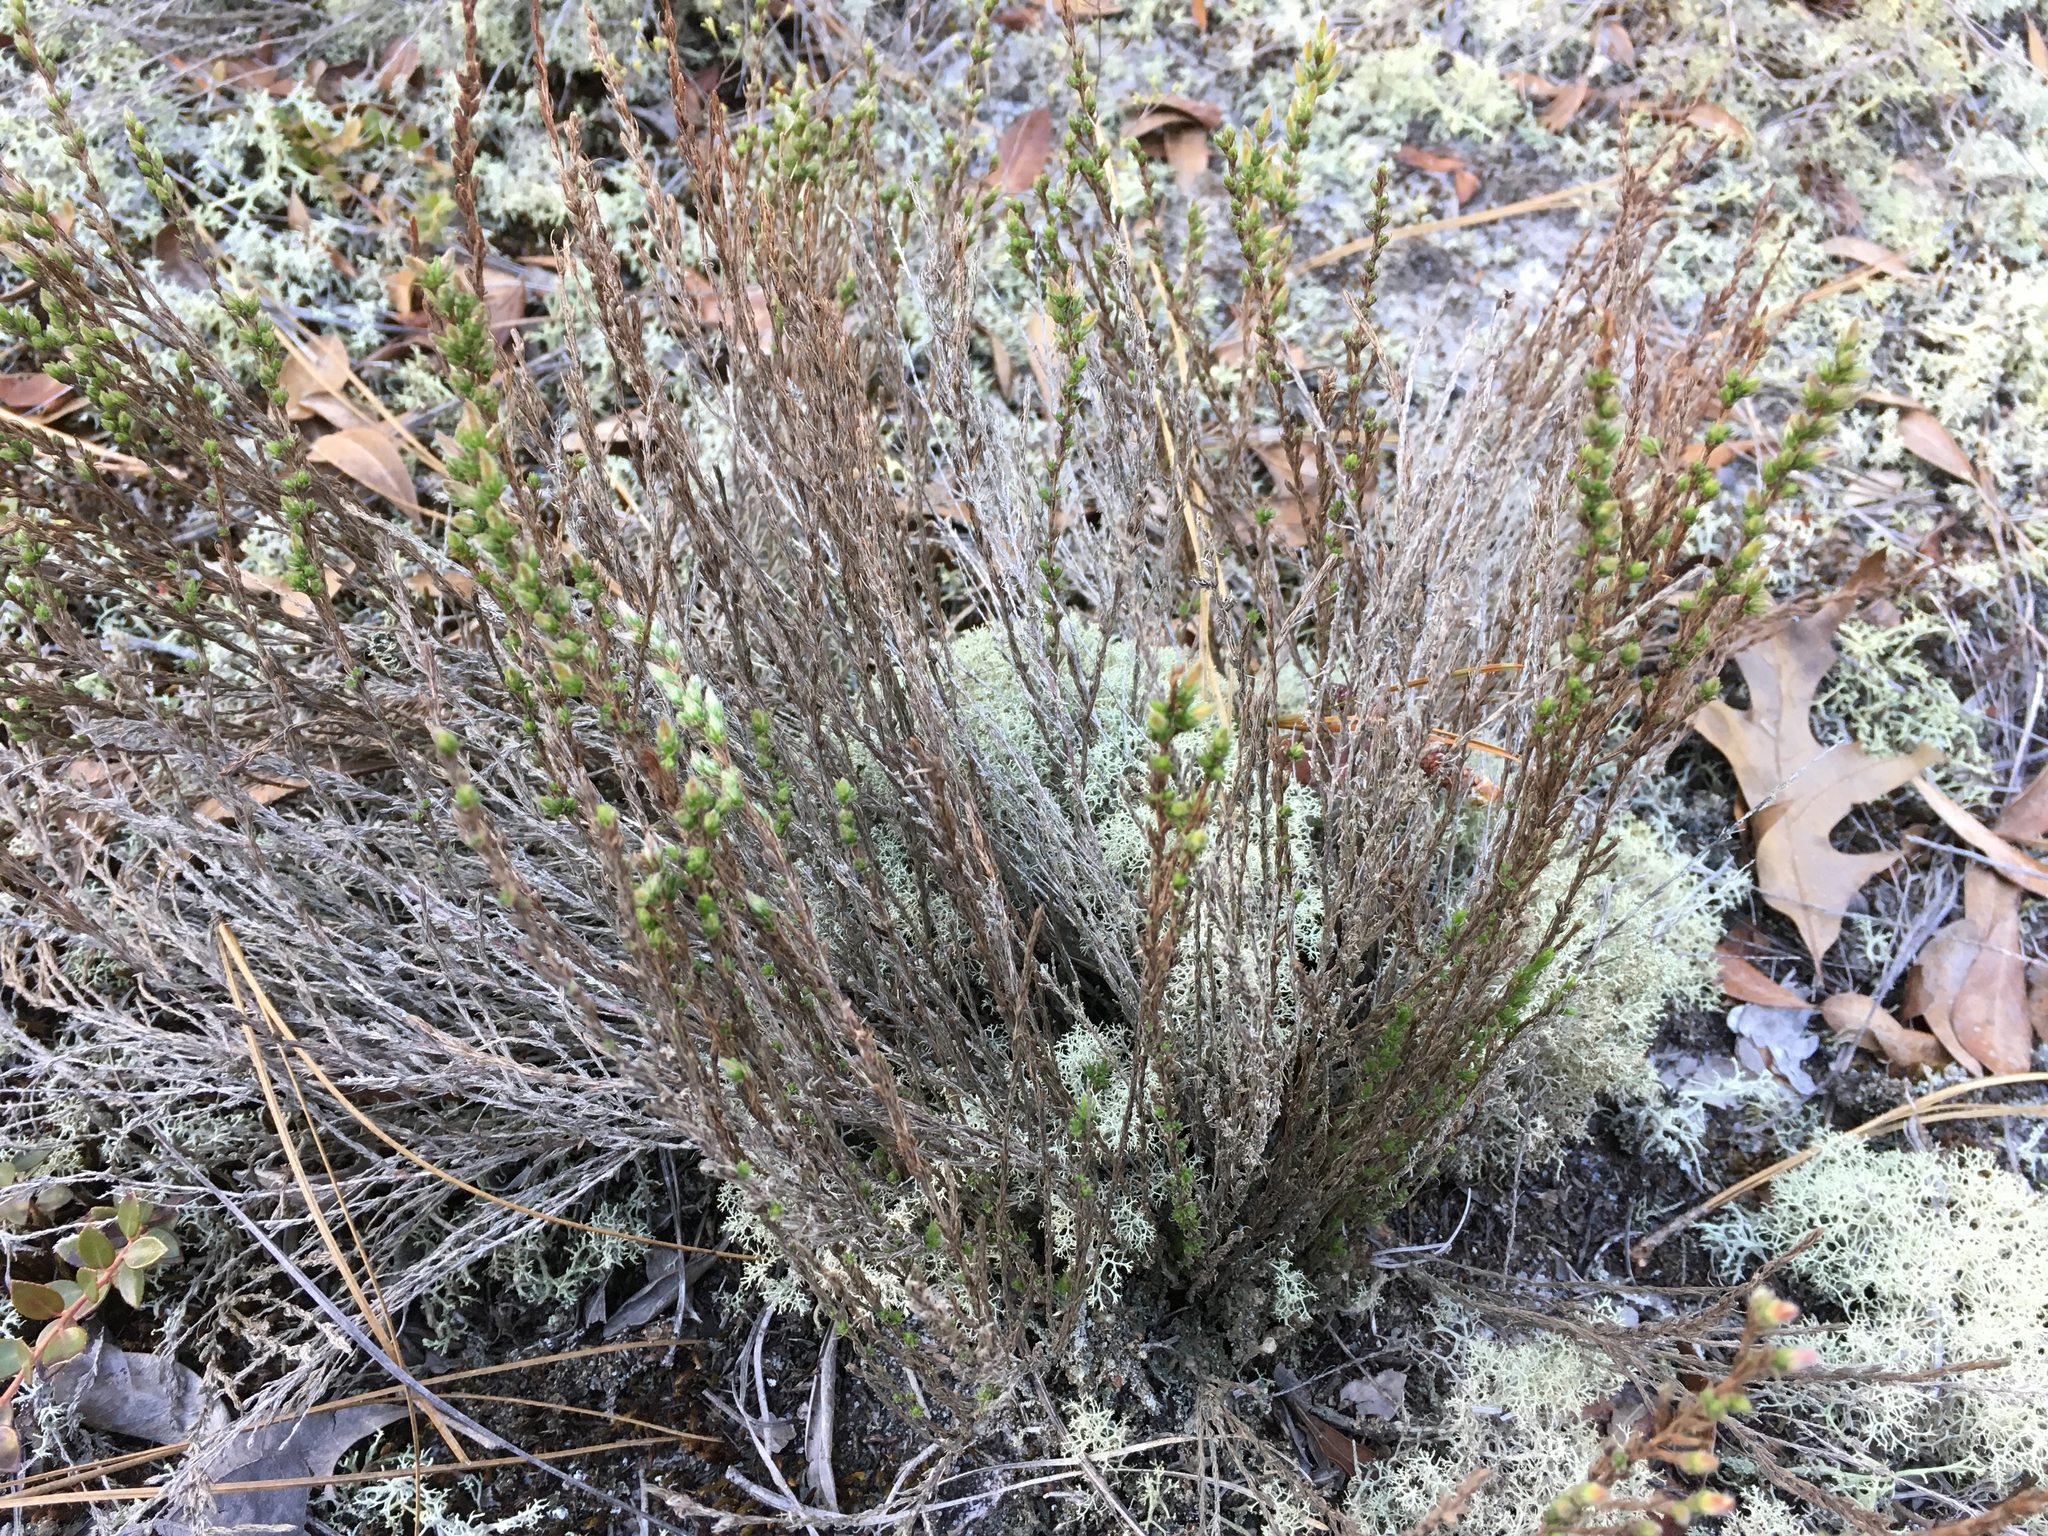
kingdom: Plantae
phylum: Tracheophyta
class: Magnoliopsida
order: Malvales
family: Cistaceae
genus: Hudsonia
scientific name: Hudsonia ericoides
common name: Golden-heather
